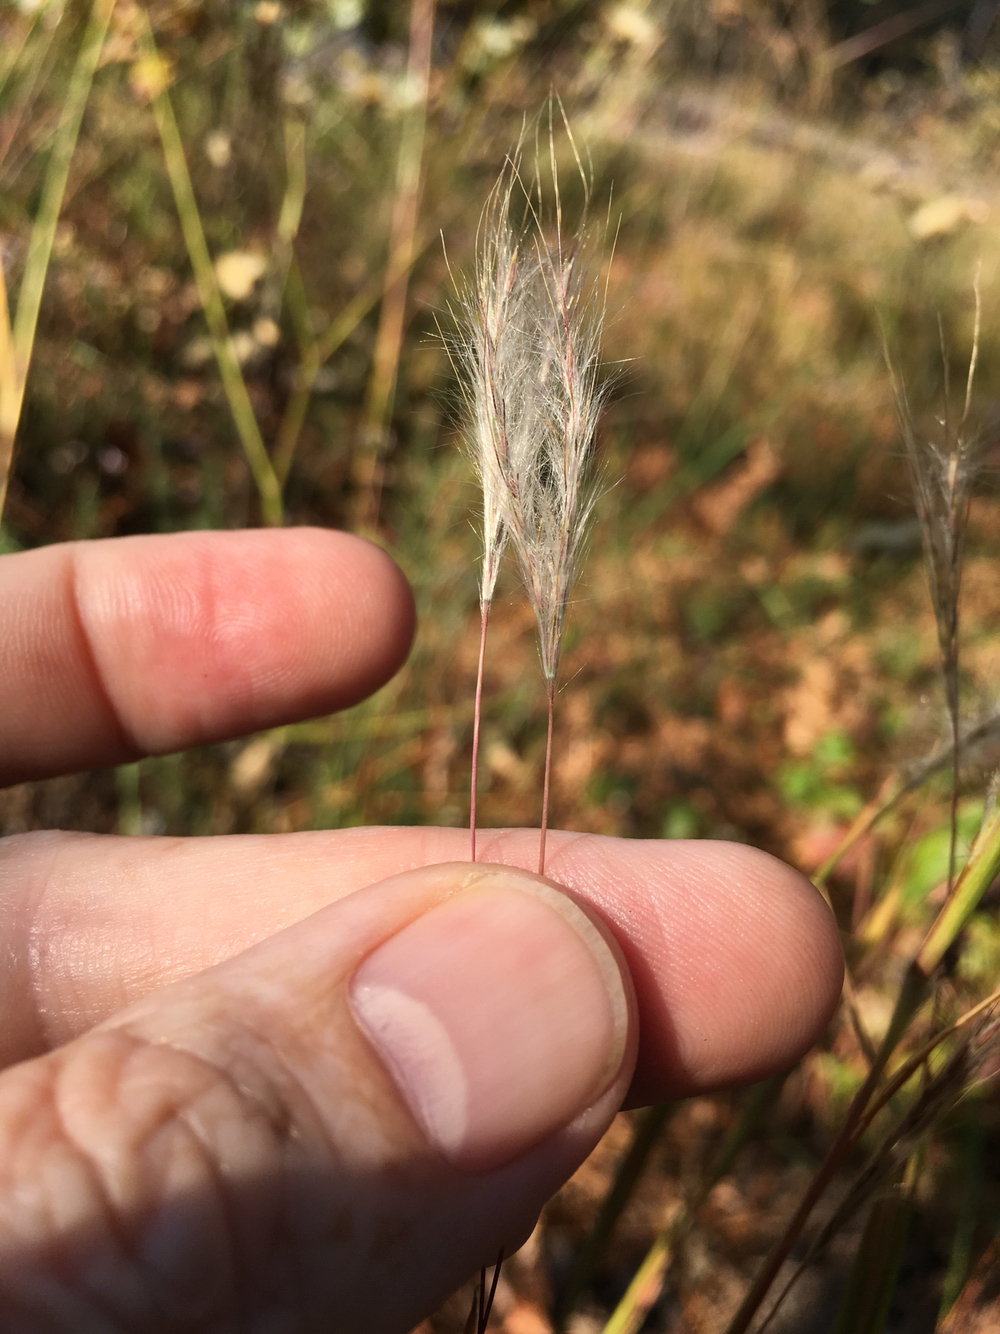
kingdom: Plantae
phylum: Tracheophyta
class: Liliopsida
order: Poales
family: Poaceae
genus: Andropogon
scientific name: Andropogon ternarius
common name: Split bluestem
